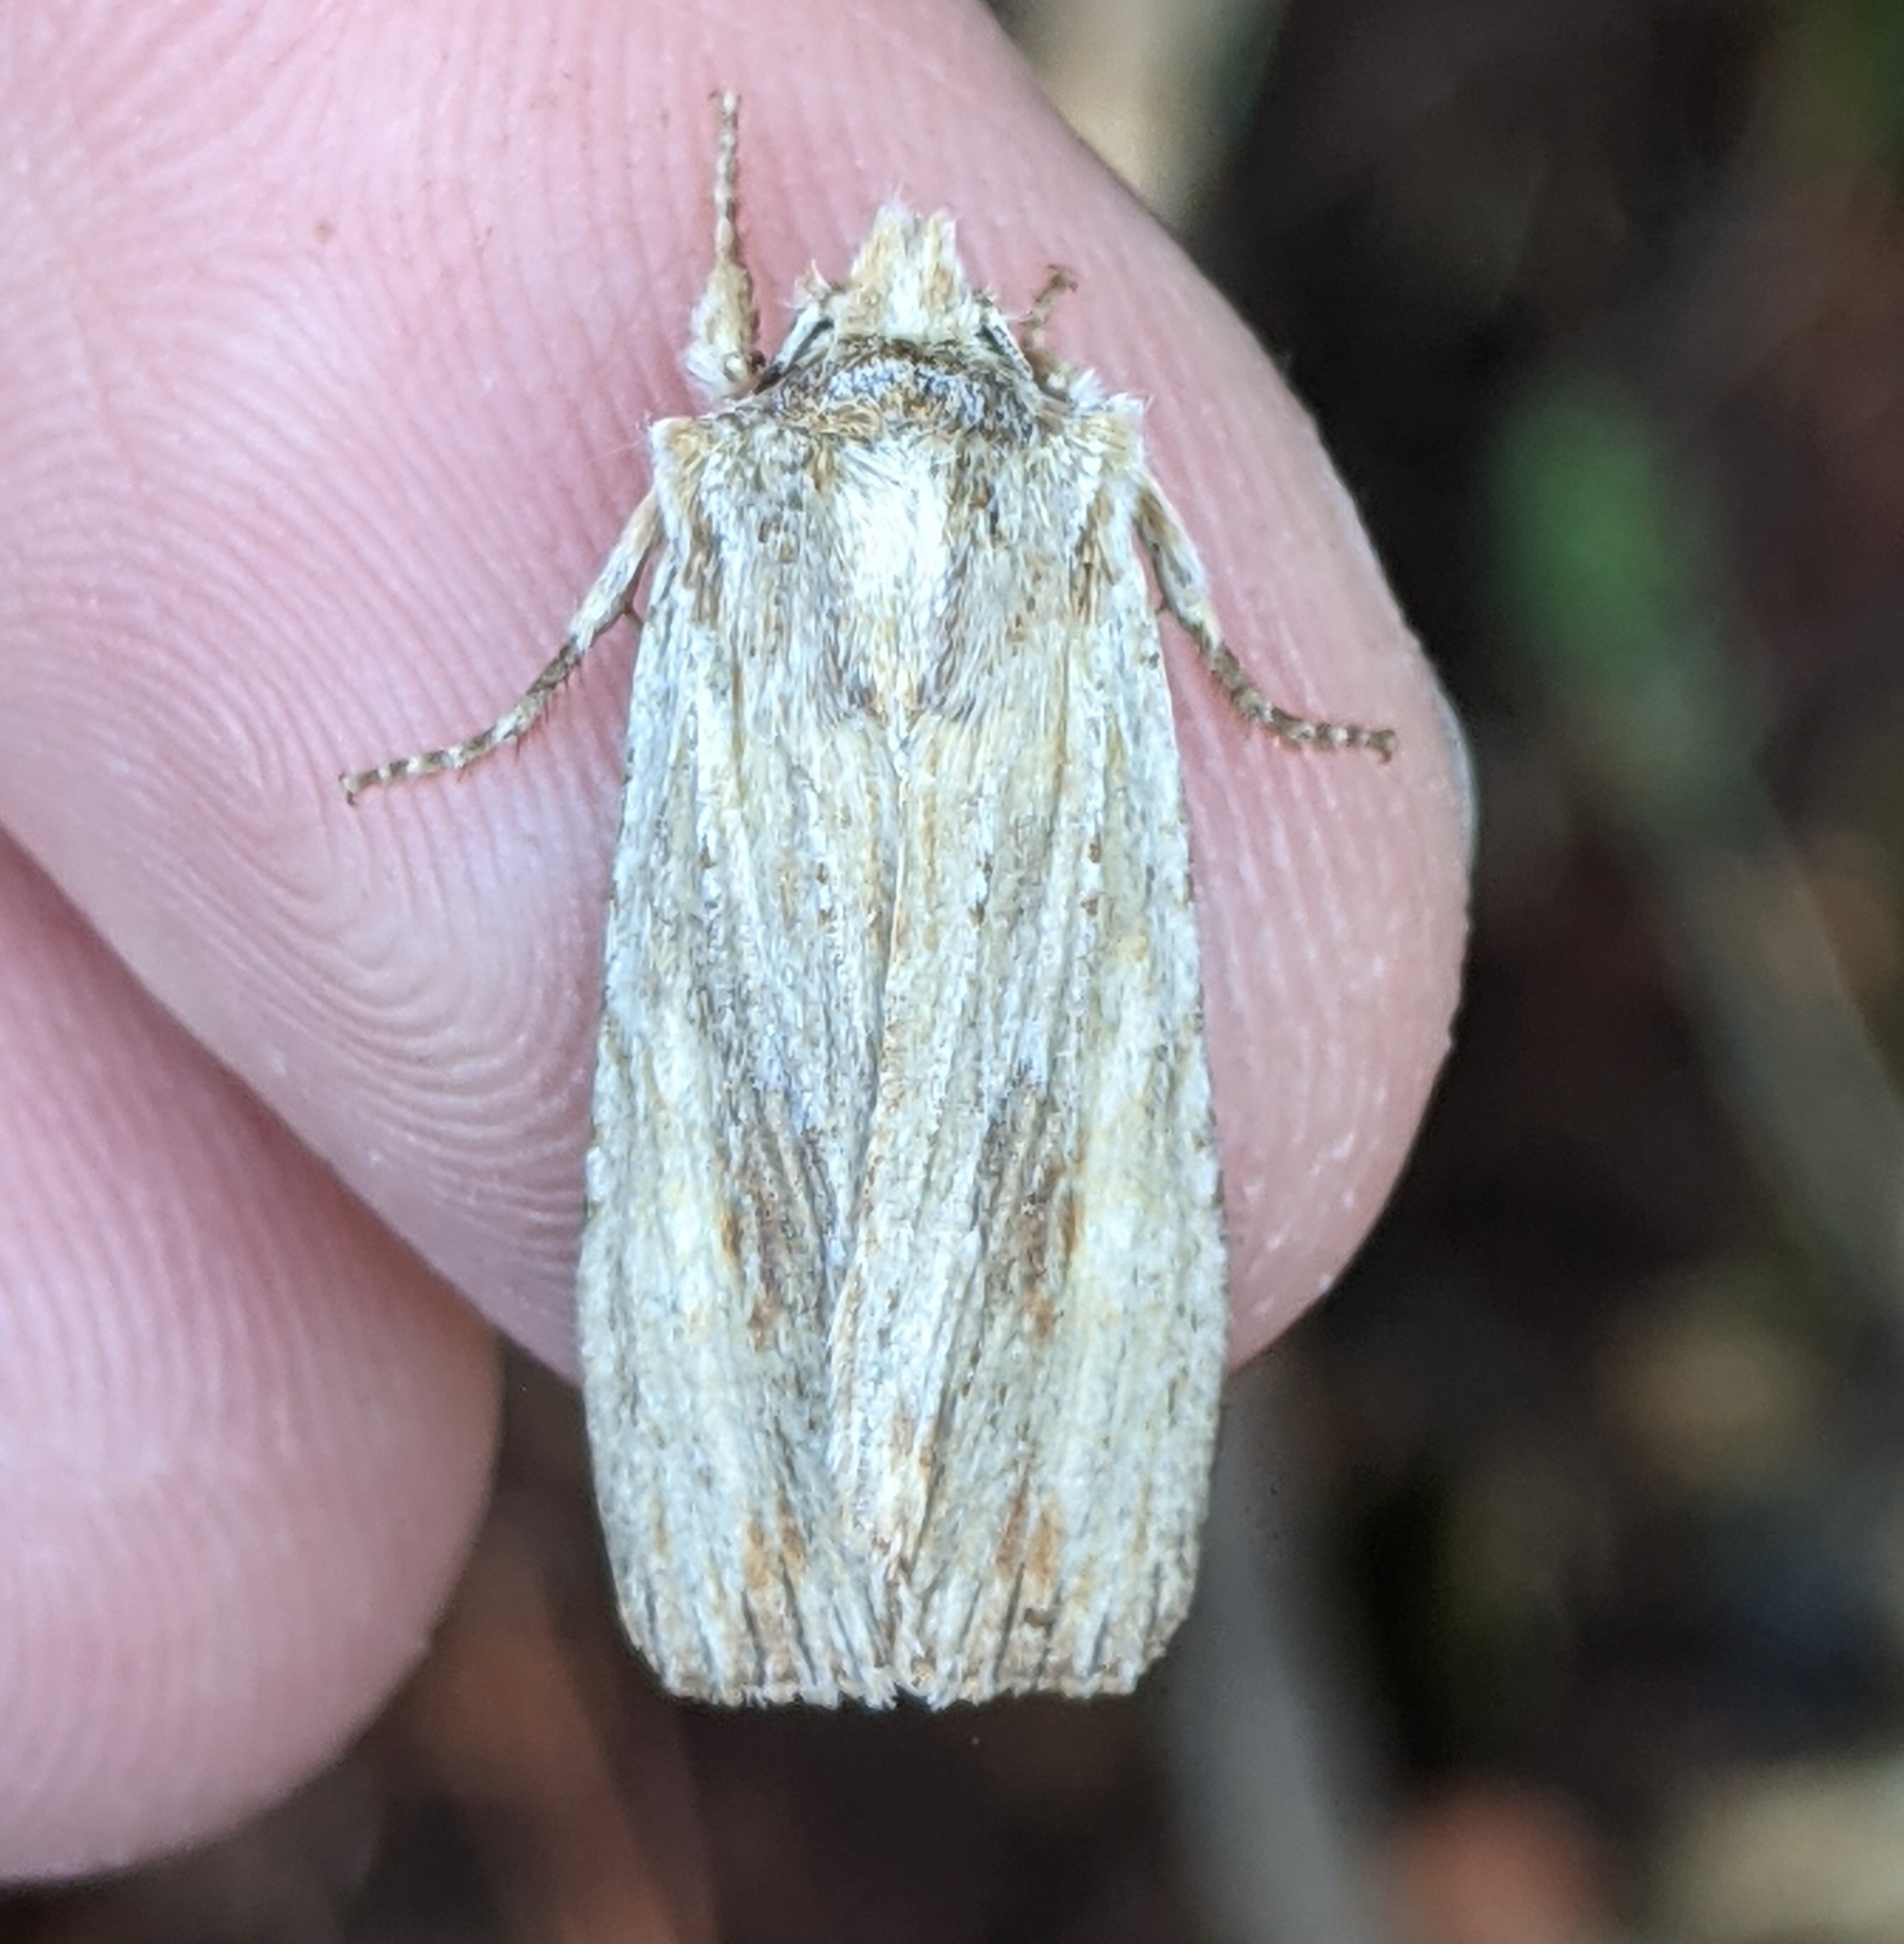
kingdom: Animalia
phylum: Arthropoda
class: Insecta
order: Lepidoptera
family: Noctuidae
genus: Lithophane
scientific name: Lithophane amanda
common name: Amanda's pinion moth
